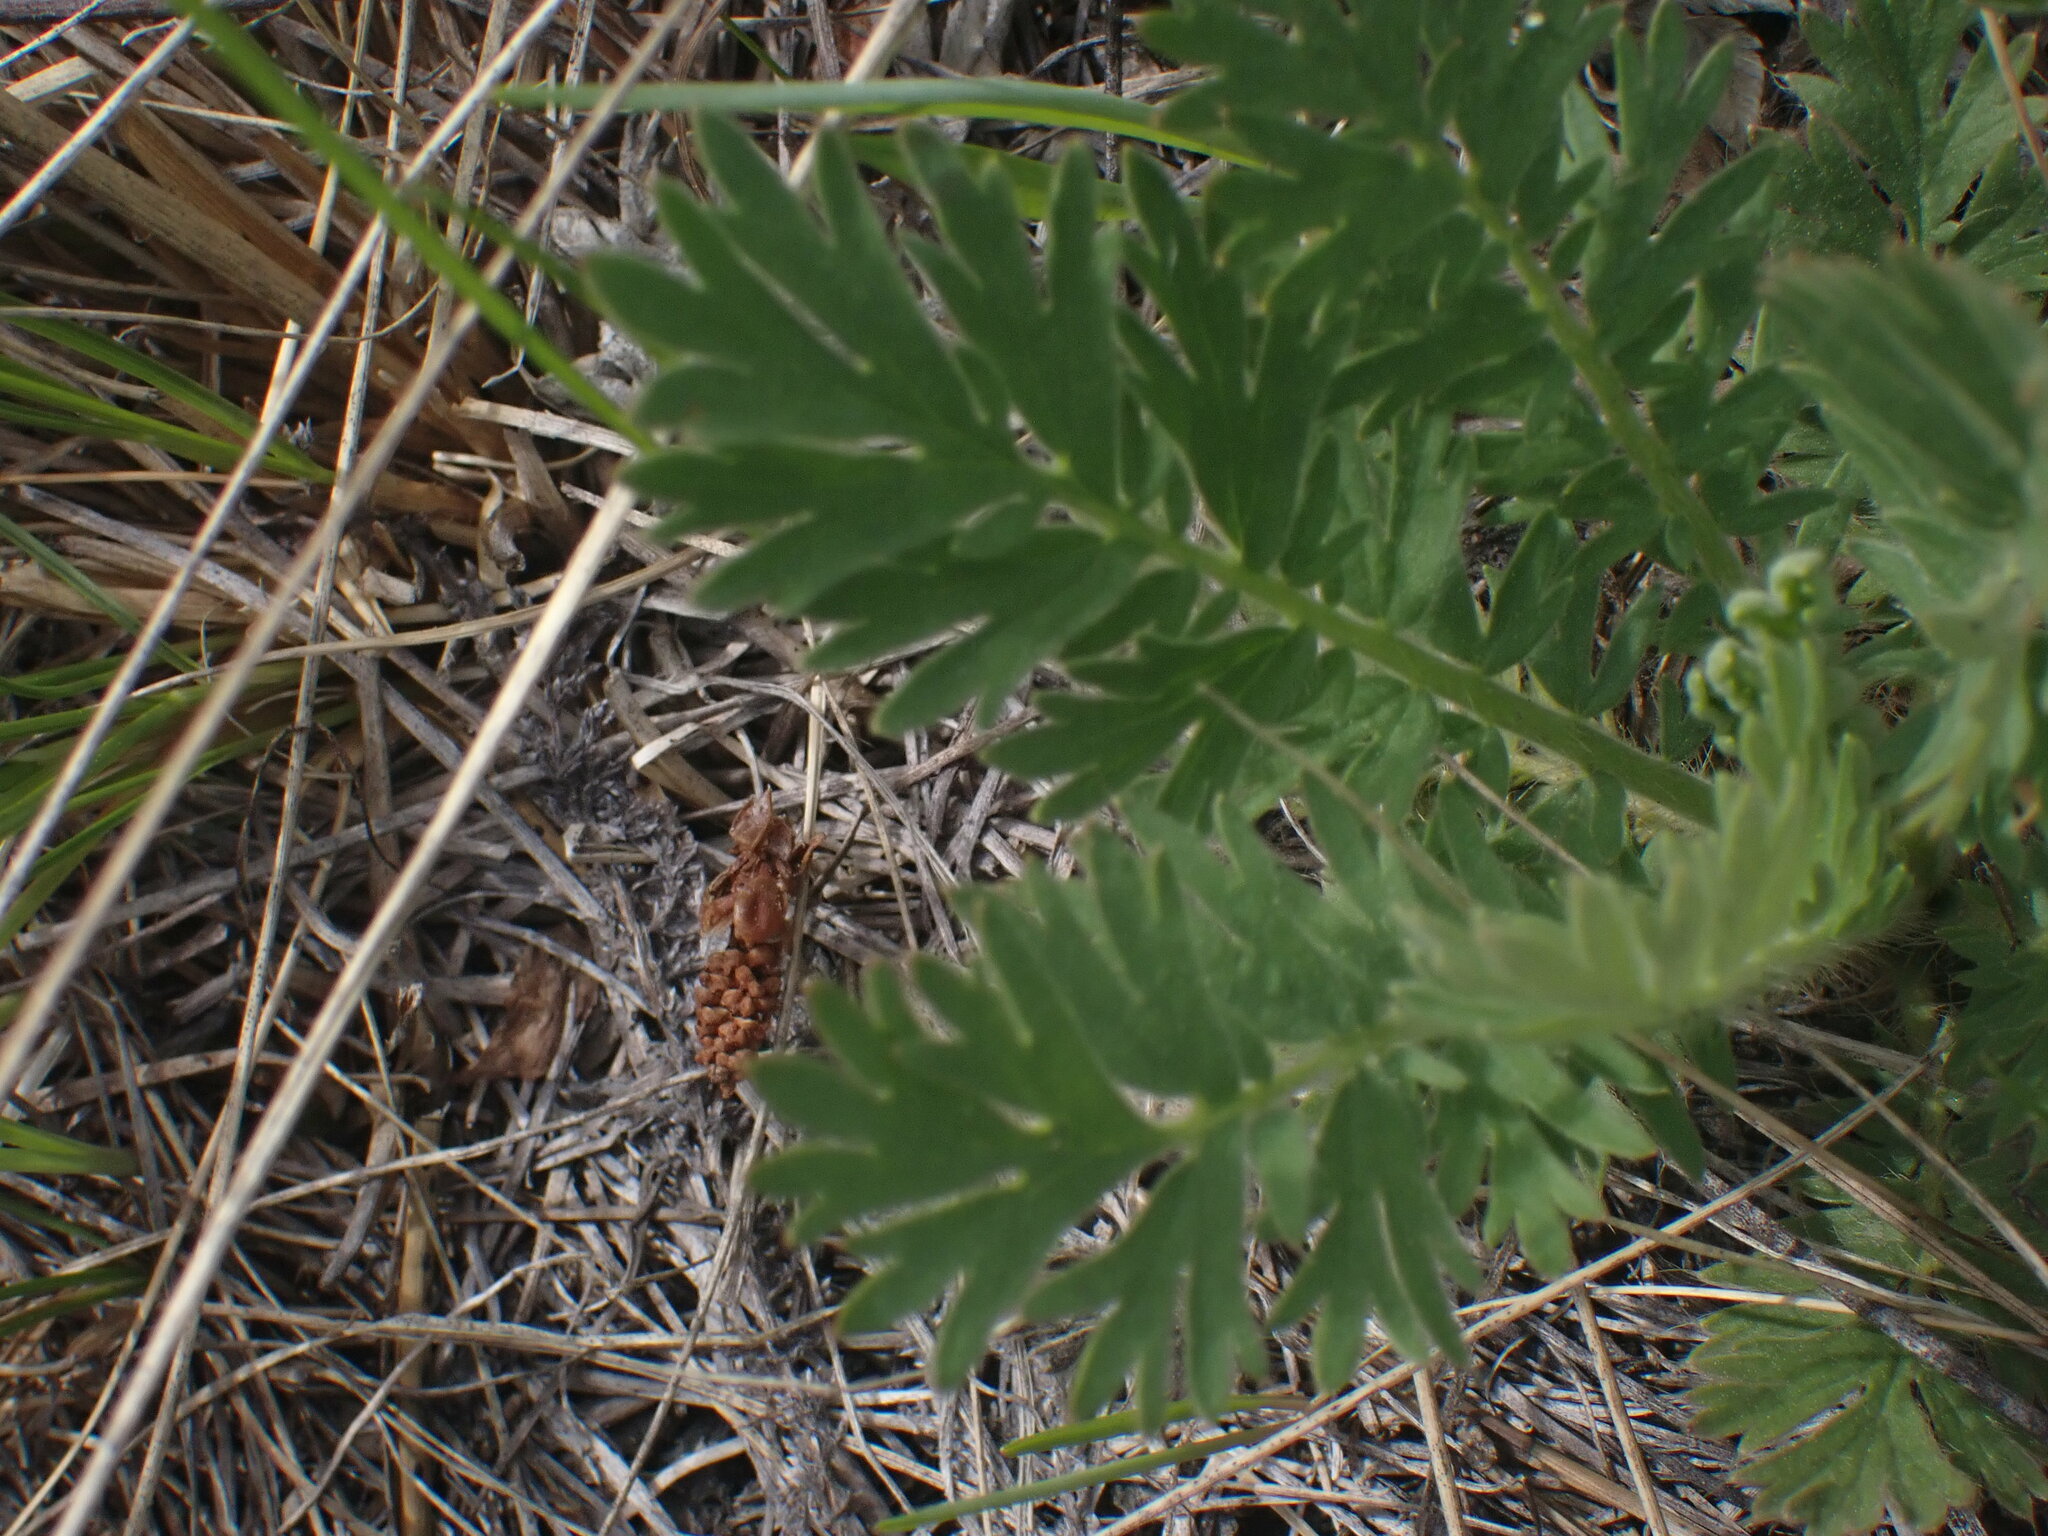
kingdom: Plantae
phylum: Tracheophyta
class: Magnoliopsida
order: Rosales
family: Rosaceae
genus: Geum
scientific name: Geum triflorum
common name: Old man's whiskers
